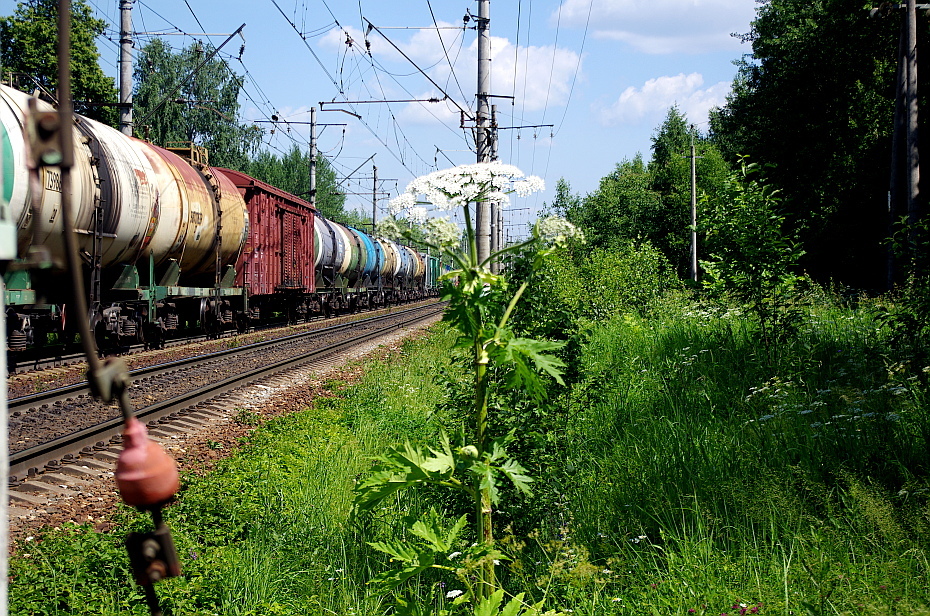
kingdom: Plantae
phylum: Tracheophyta
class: Magnoliopsida
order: Apiales
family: Apiaceae
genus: Heracleum
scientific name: Heracleum sosnowskyi
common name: Sosnowsky's hogweed
